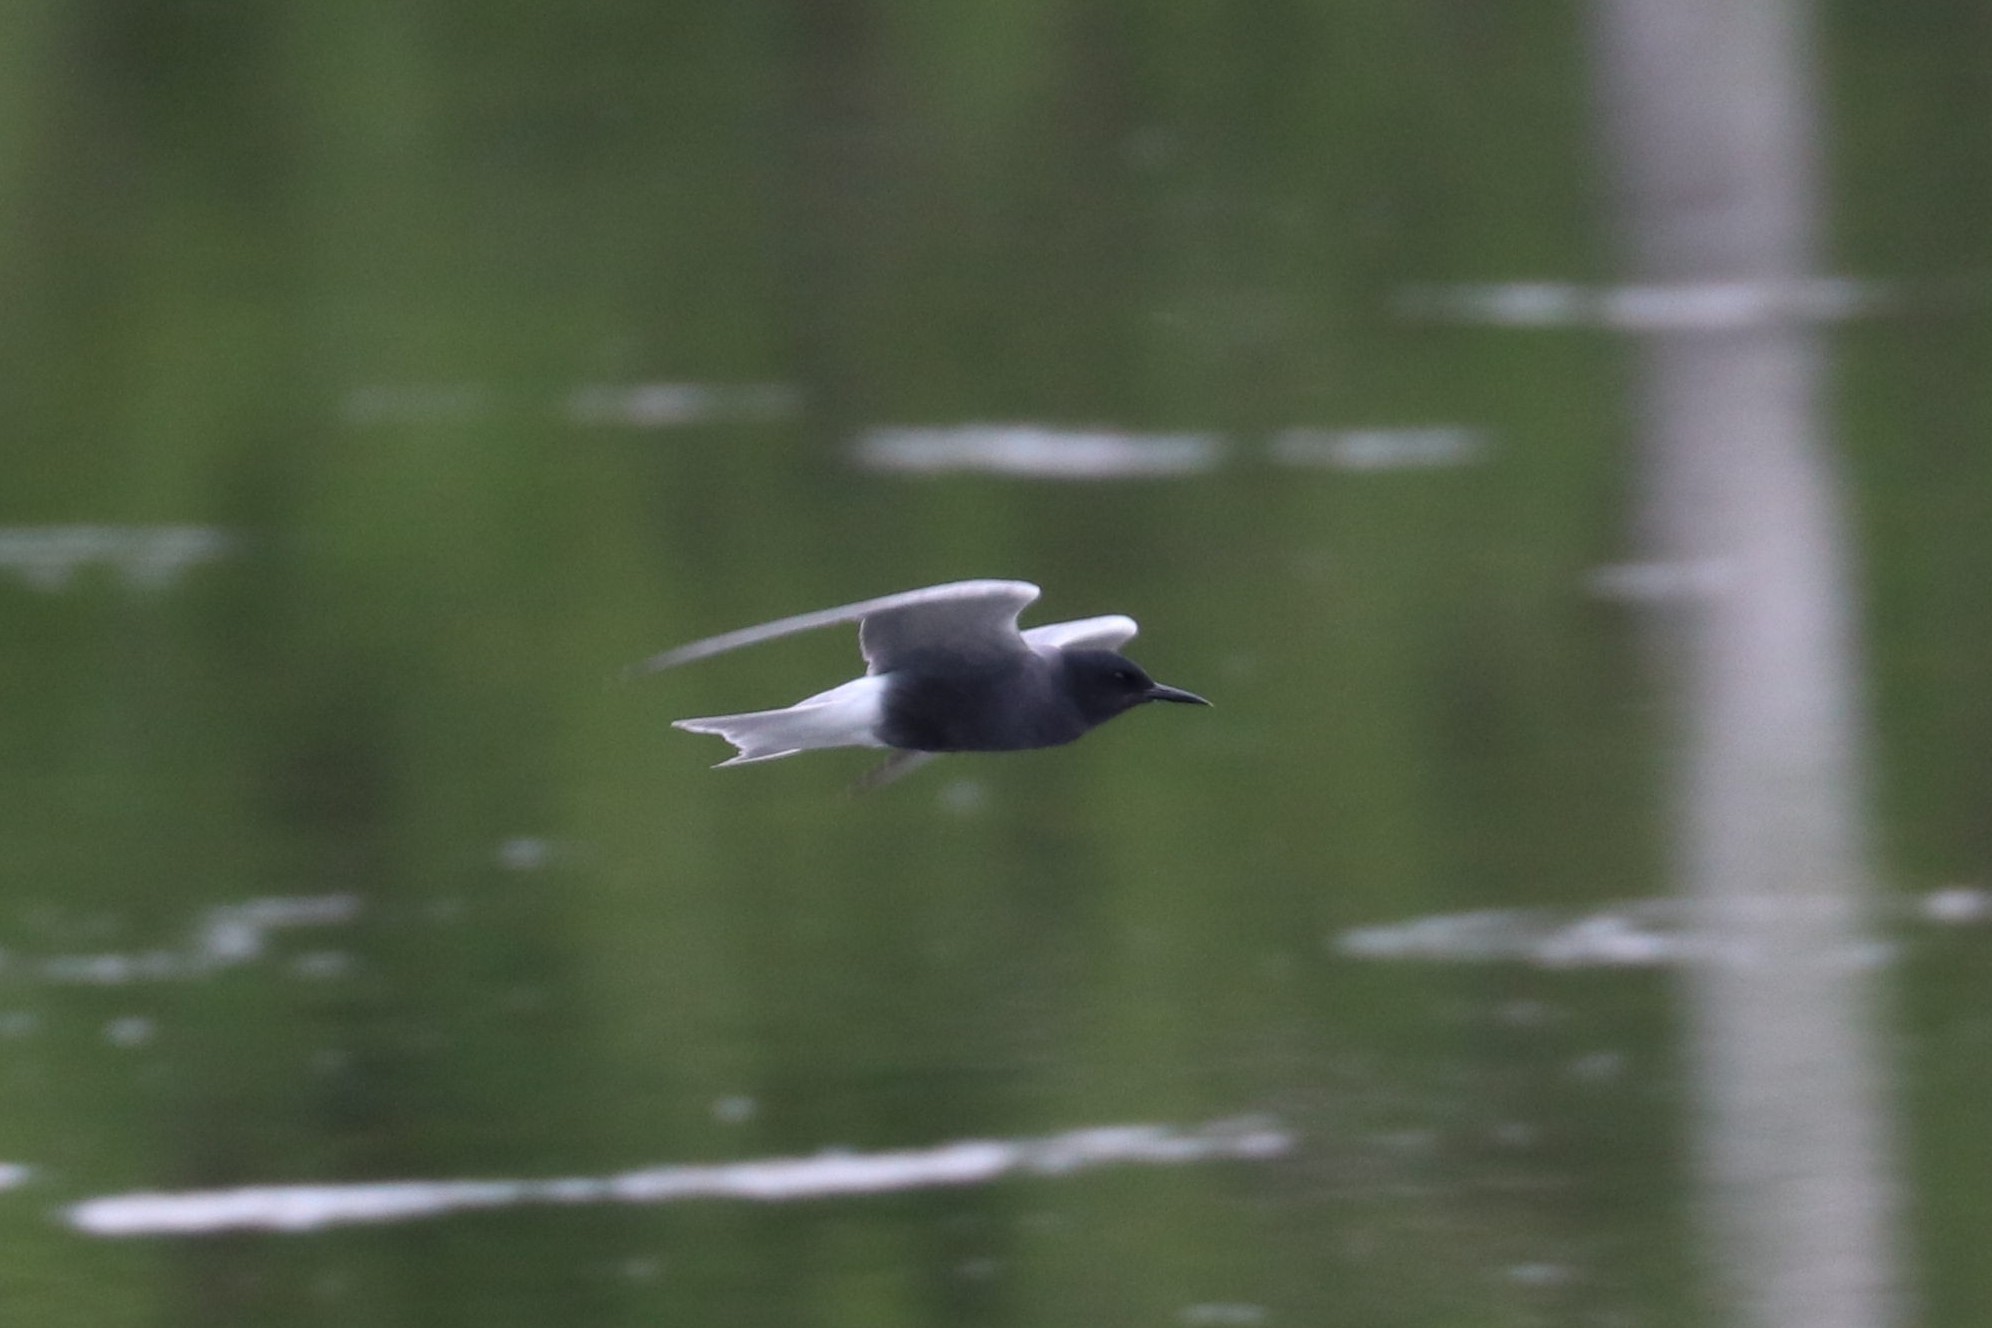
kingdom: Animalia
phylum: Chordata
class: Aves
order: Charadriiformes
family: Laridae
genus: Chlidonias
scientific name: Chlidonias niger
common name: Black tern
